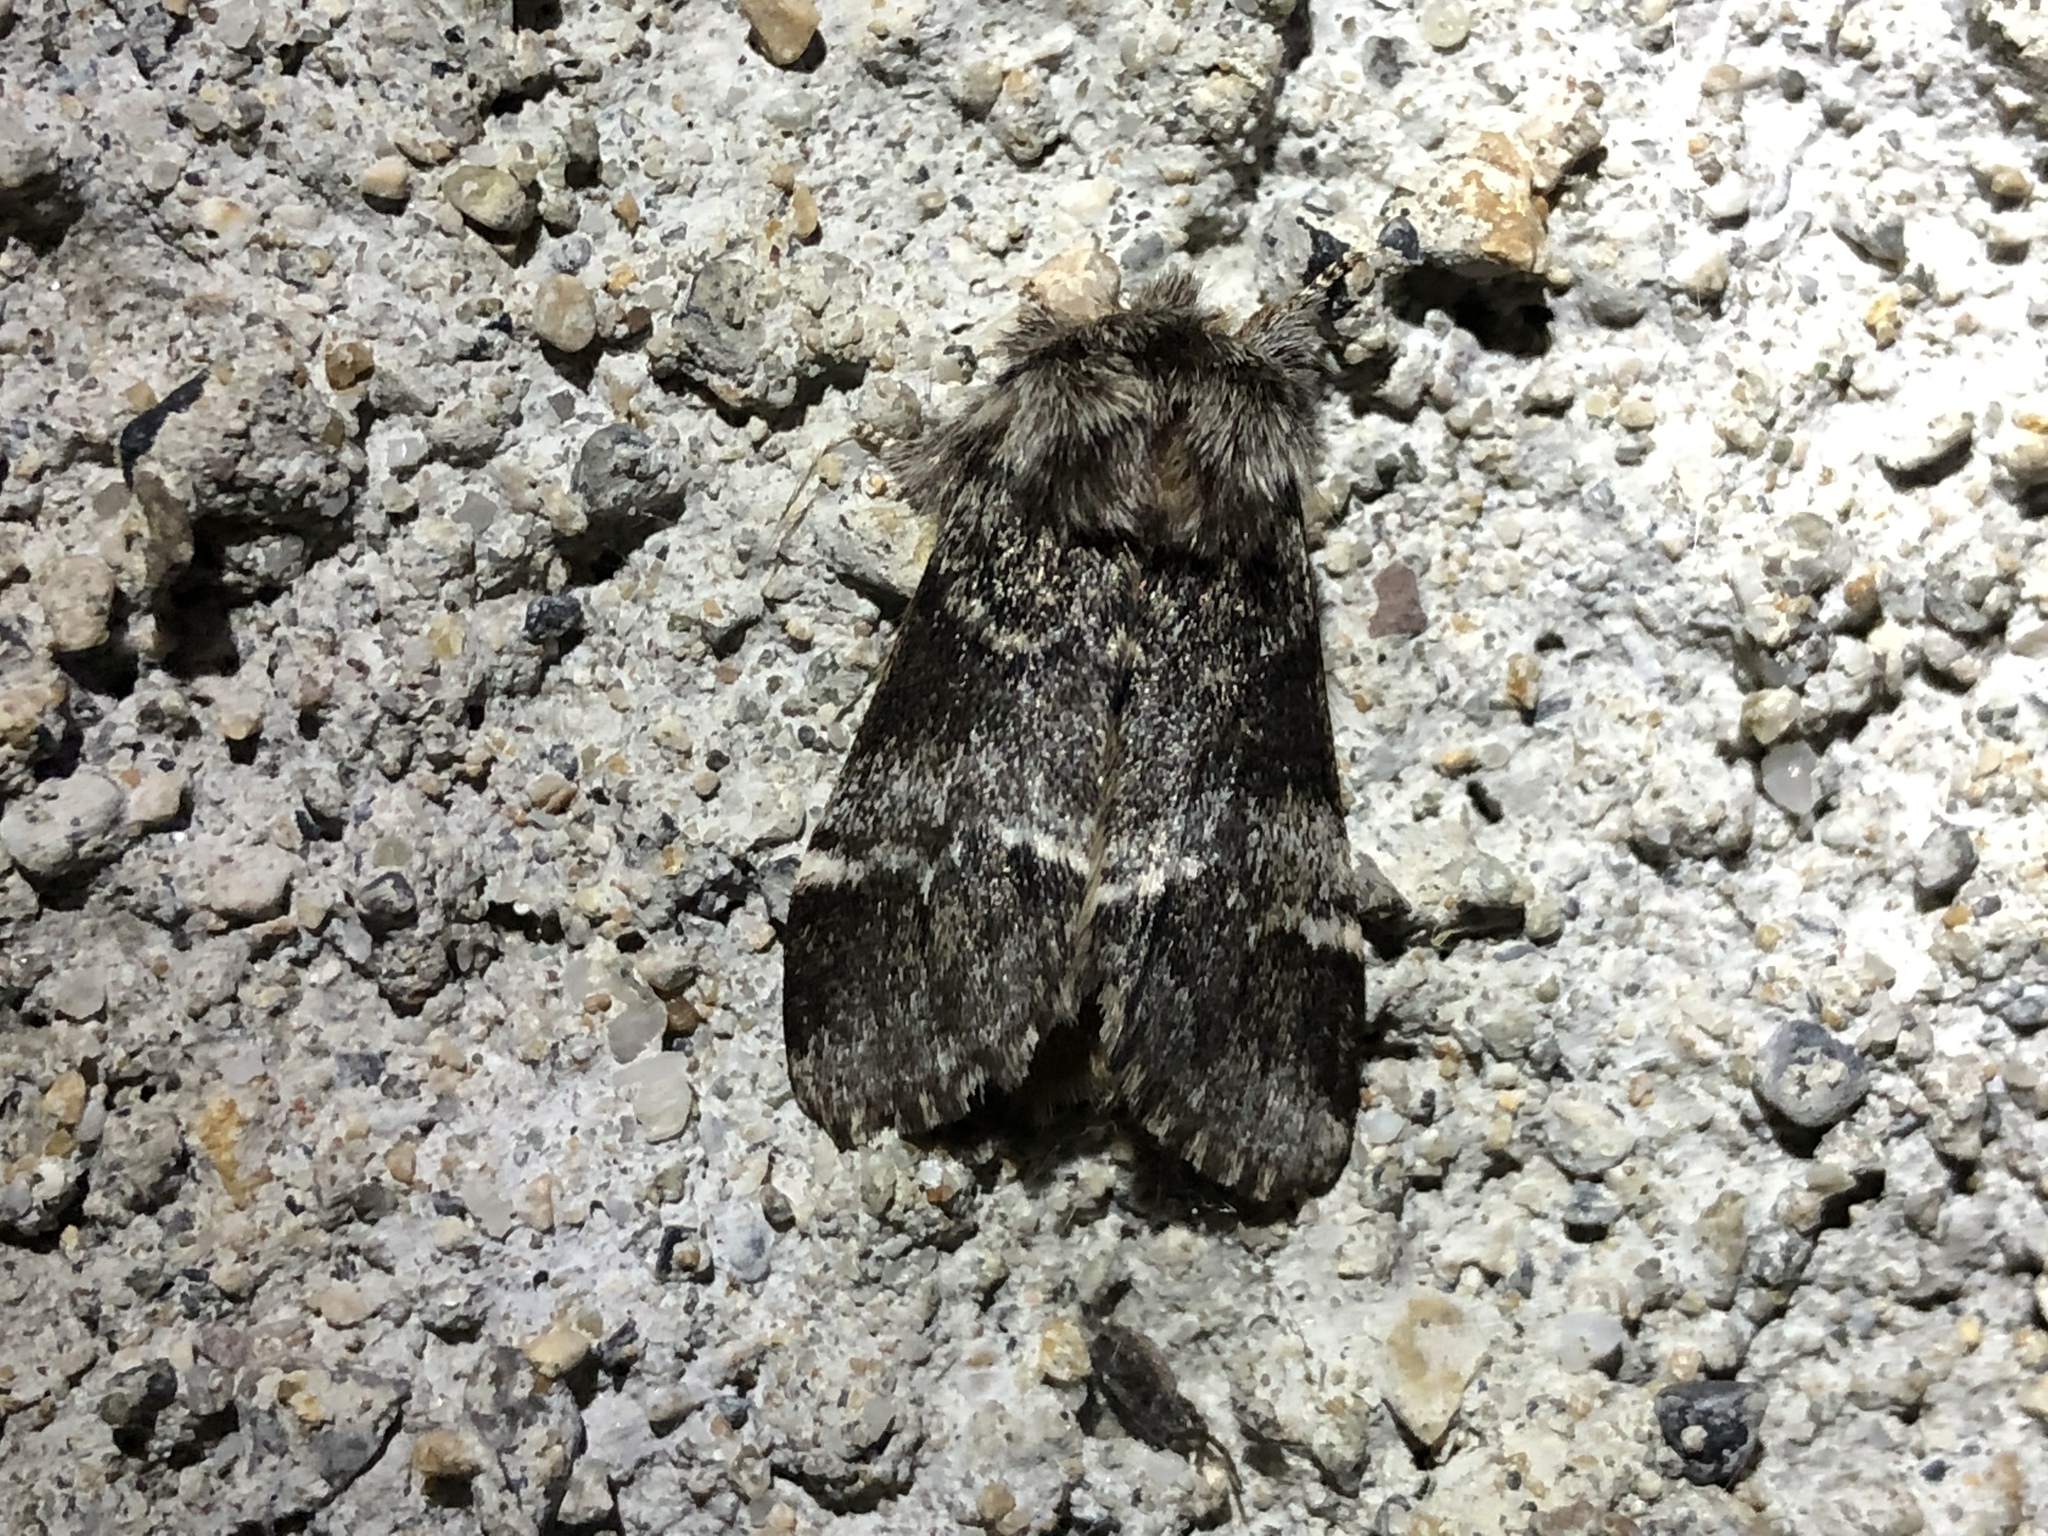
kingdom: Animalia
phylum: Arthropoda
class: Insecta
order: Lepidoptera
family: Notodontidae
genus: Drymonia
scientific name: Drymonia dodonaea
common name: Marbled brown
